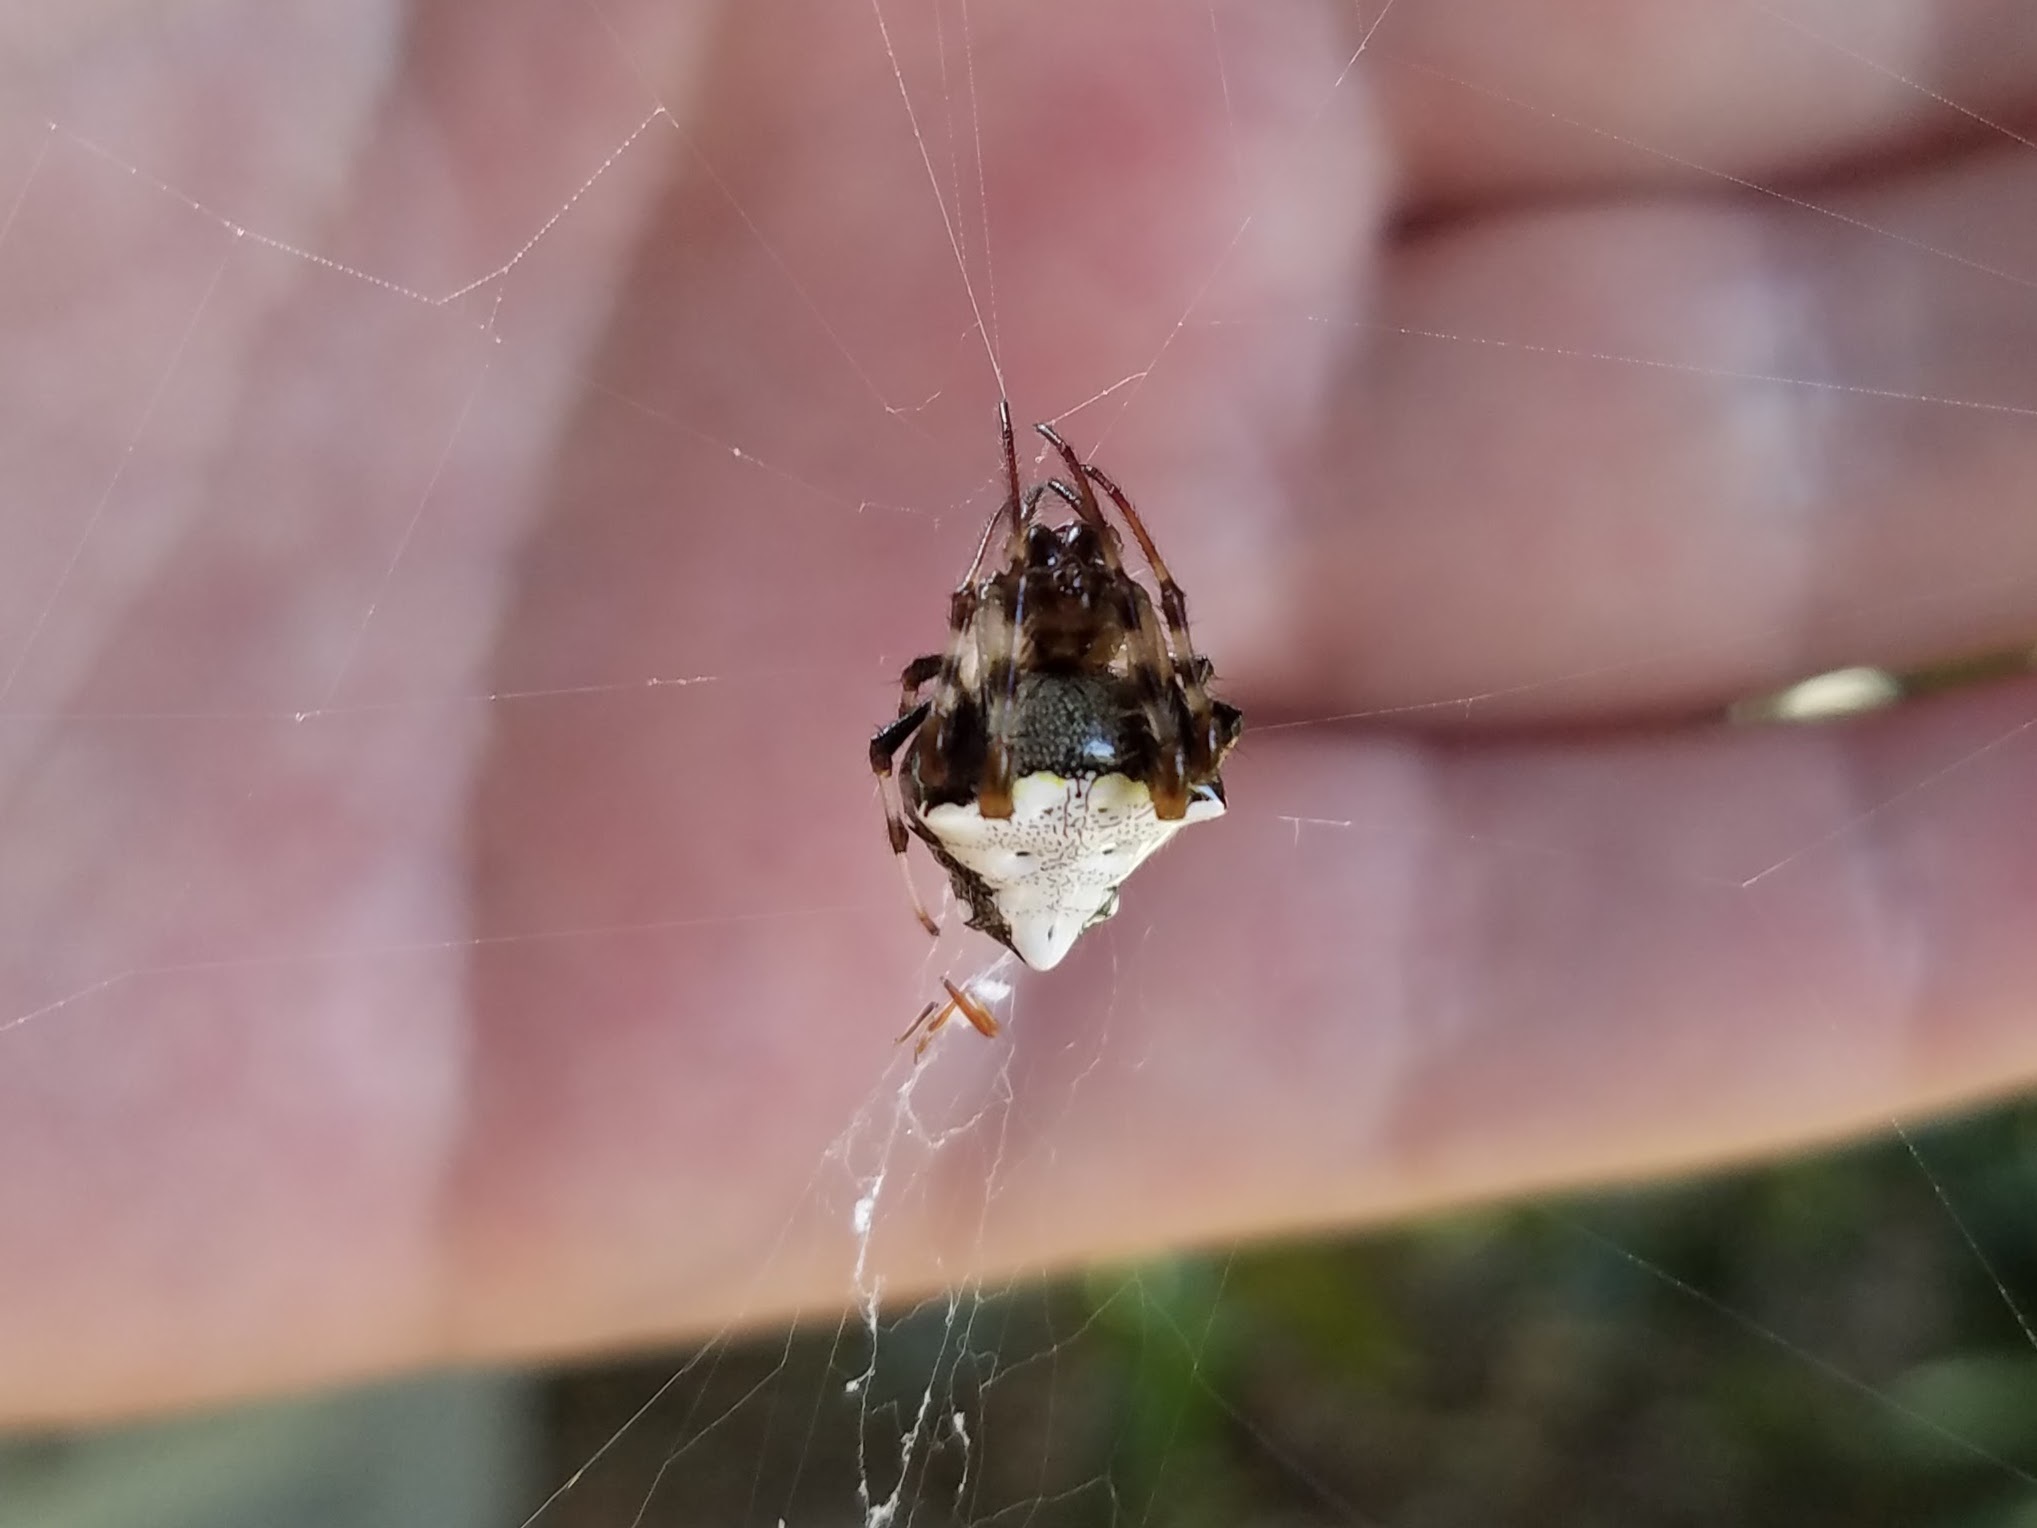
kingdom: Animalia
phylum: Arthropoda
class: Arachnida
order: Araneae
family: Araneidae
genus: Verrucosa
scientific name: Verrucosa arenata
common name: Orb weavers
